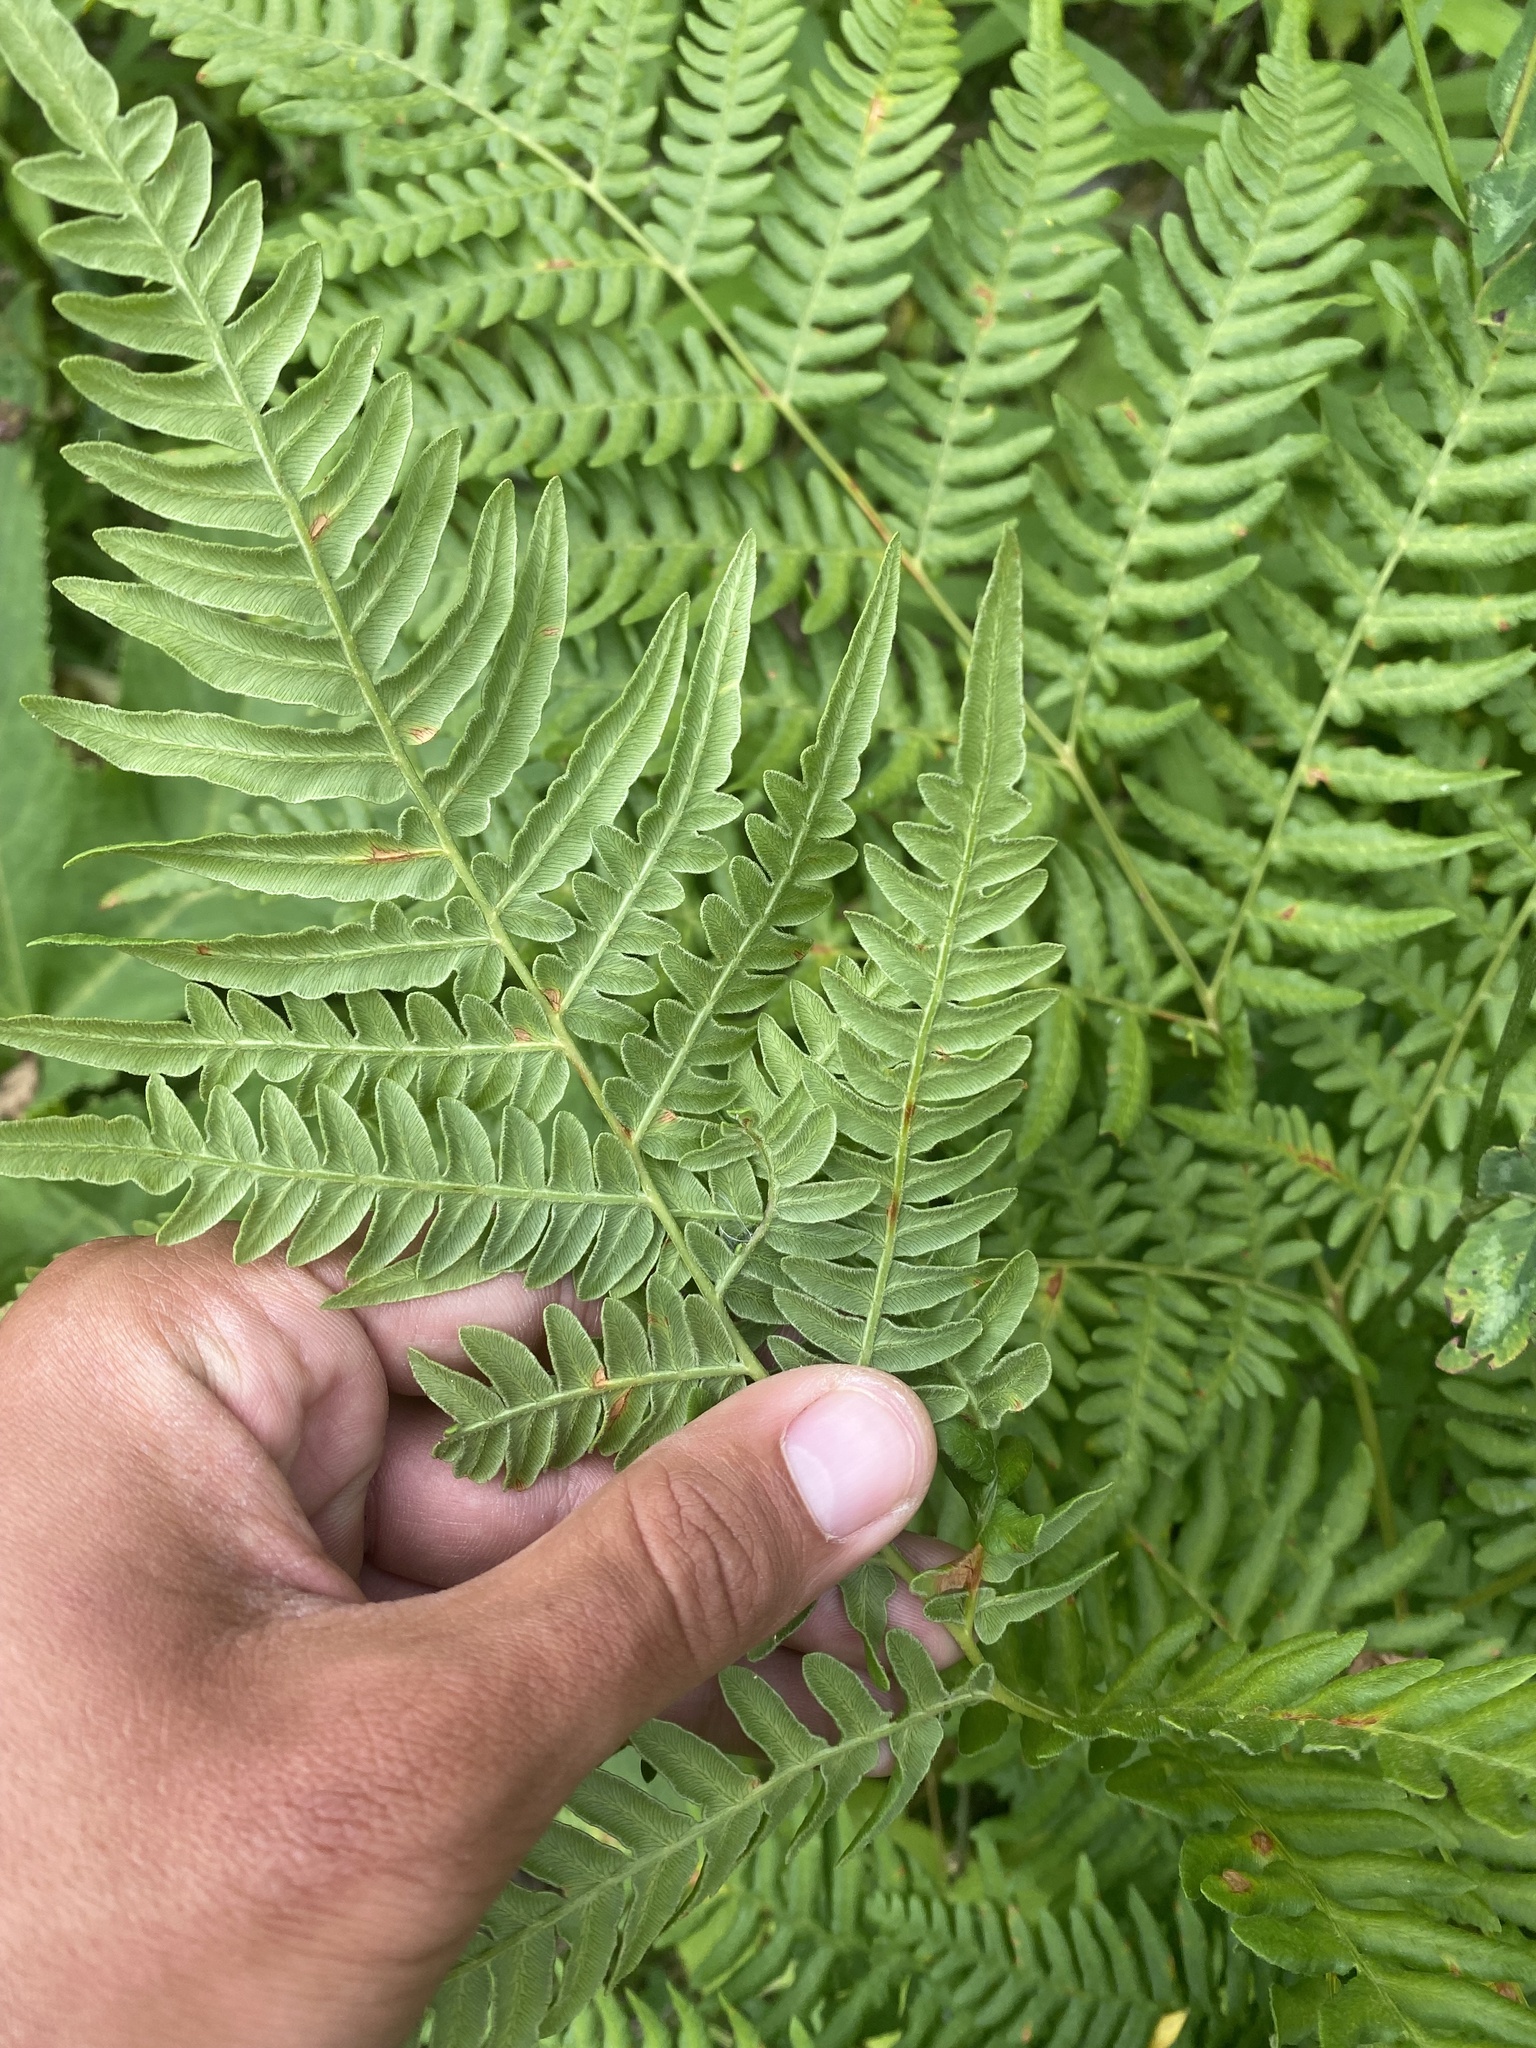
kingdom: Plantae
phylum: Tracheophyta
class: Polypodiopsida
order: Polypodiales
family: Dennstaedtiaceae
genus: Pteridium
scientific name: Pteridium aquilinum
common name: Bracken
